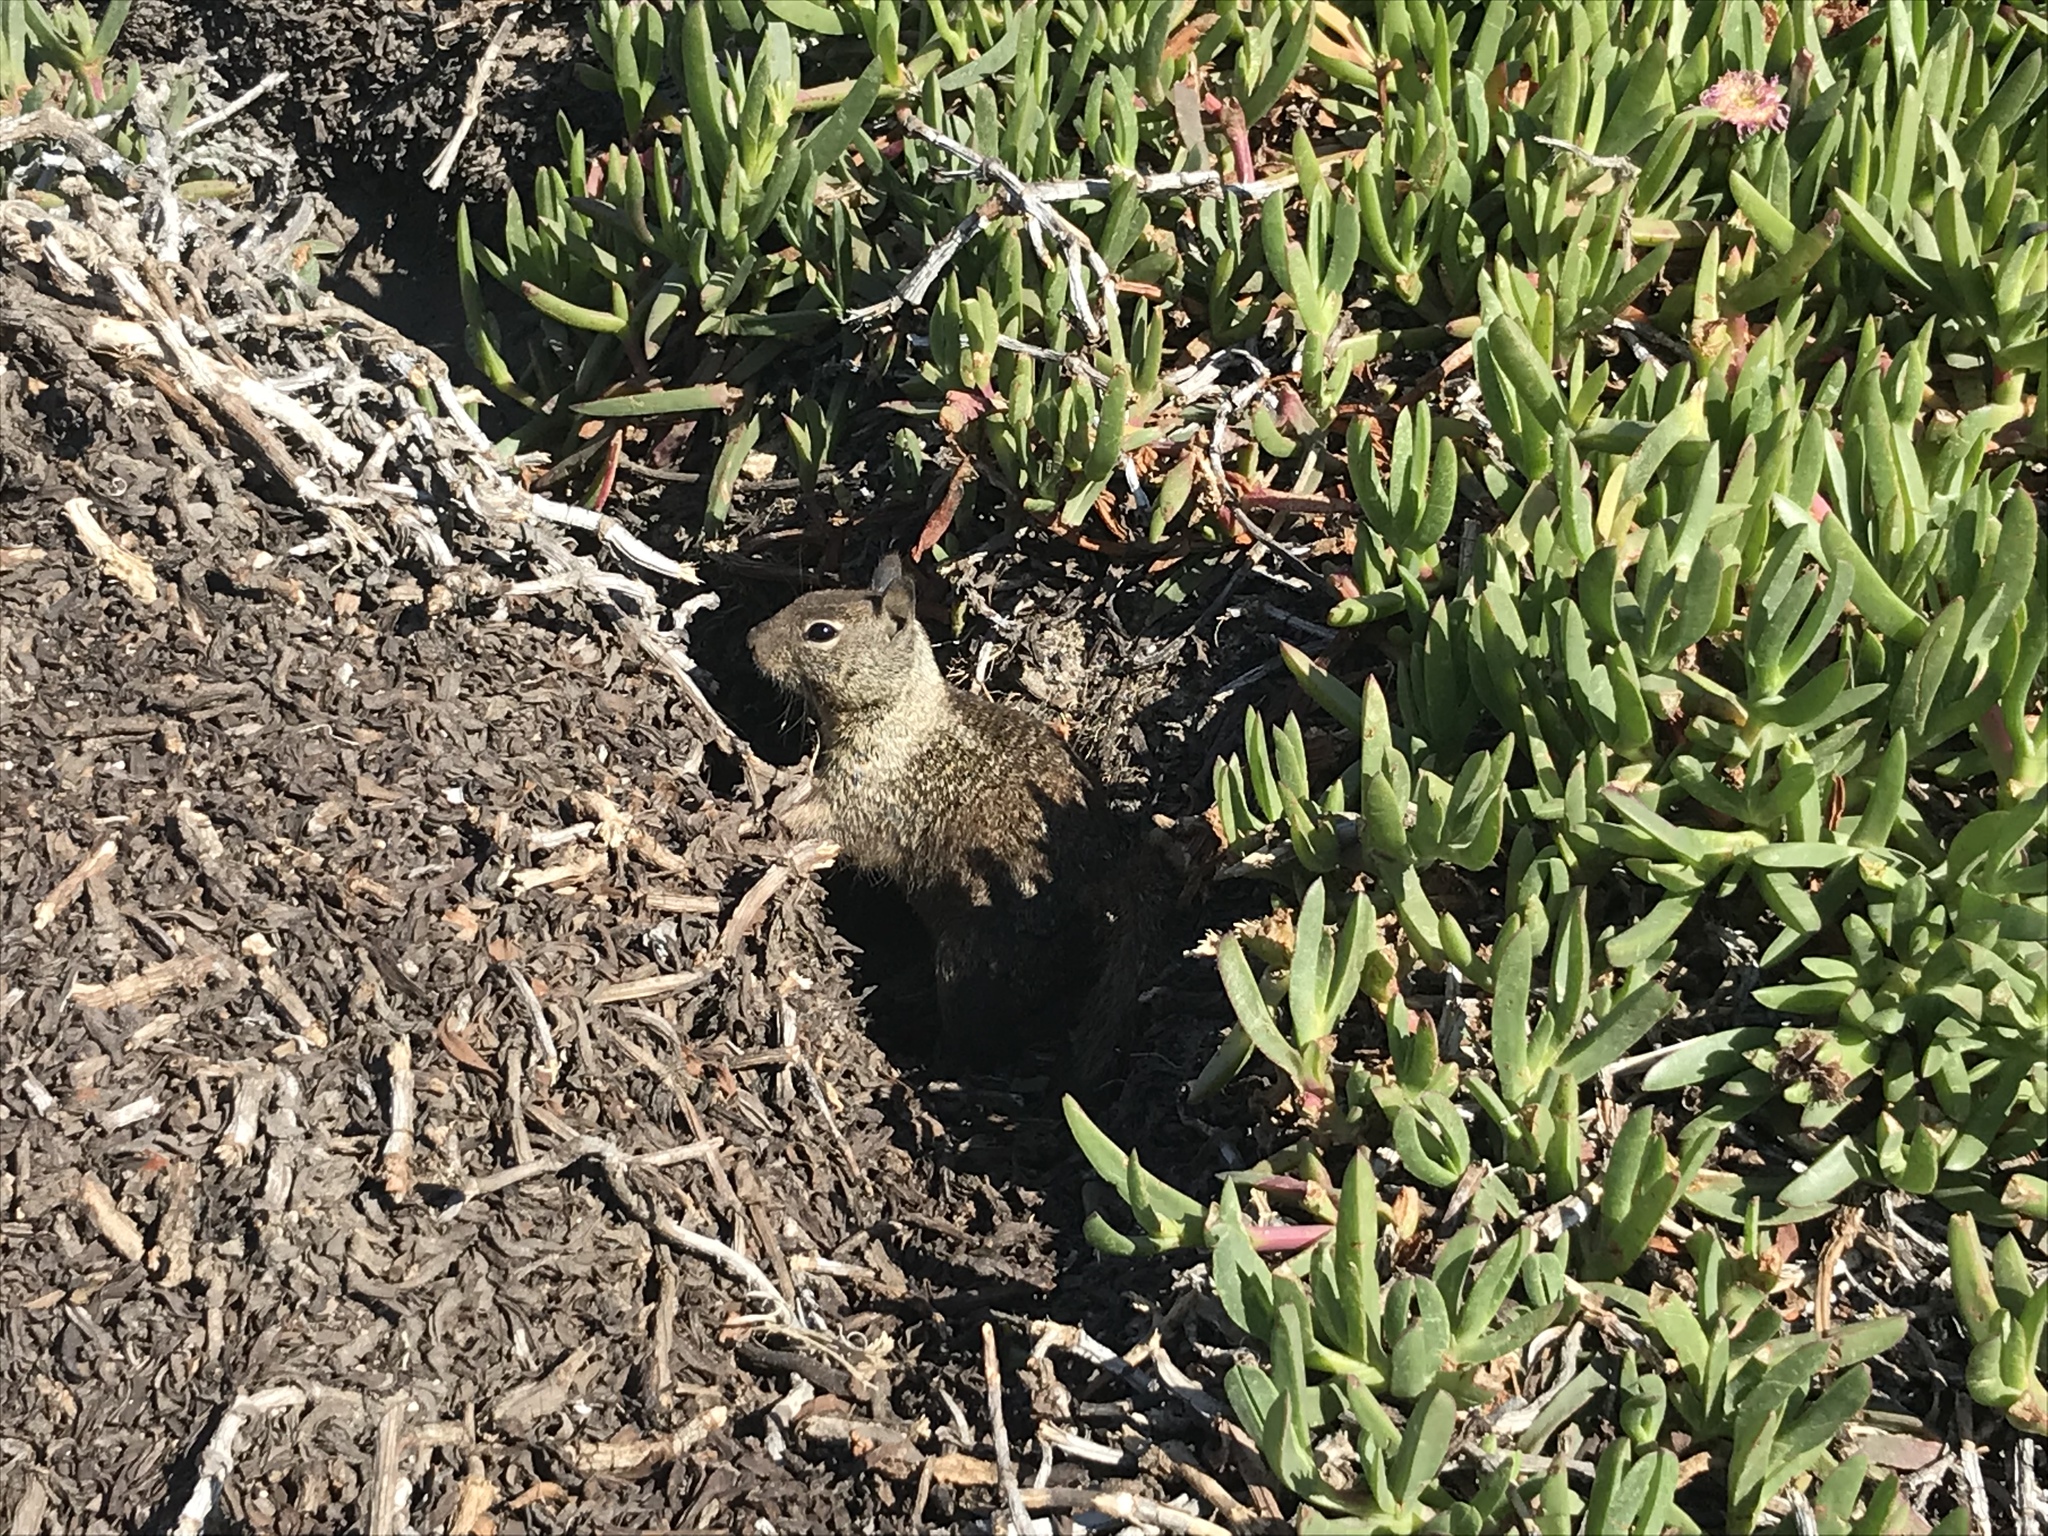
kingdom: Animalia
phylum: Chordata
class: Mammalia
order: Rodentia
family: Sciuridae
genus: Otospermophilus
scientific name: Otospermophilus beecheyi
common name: California ground squirrel
